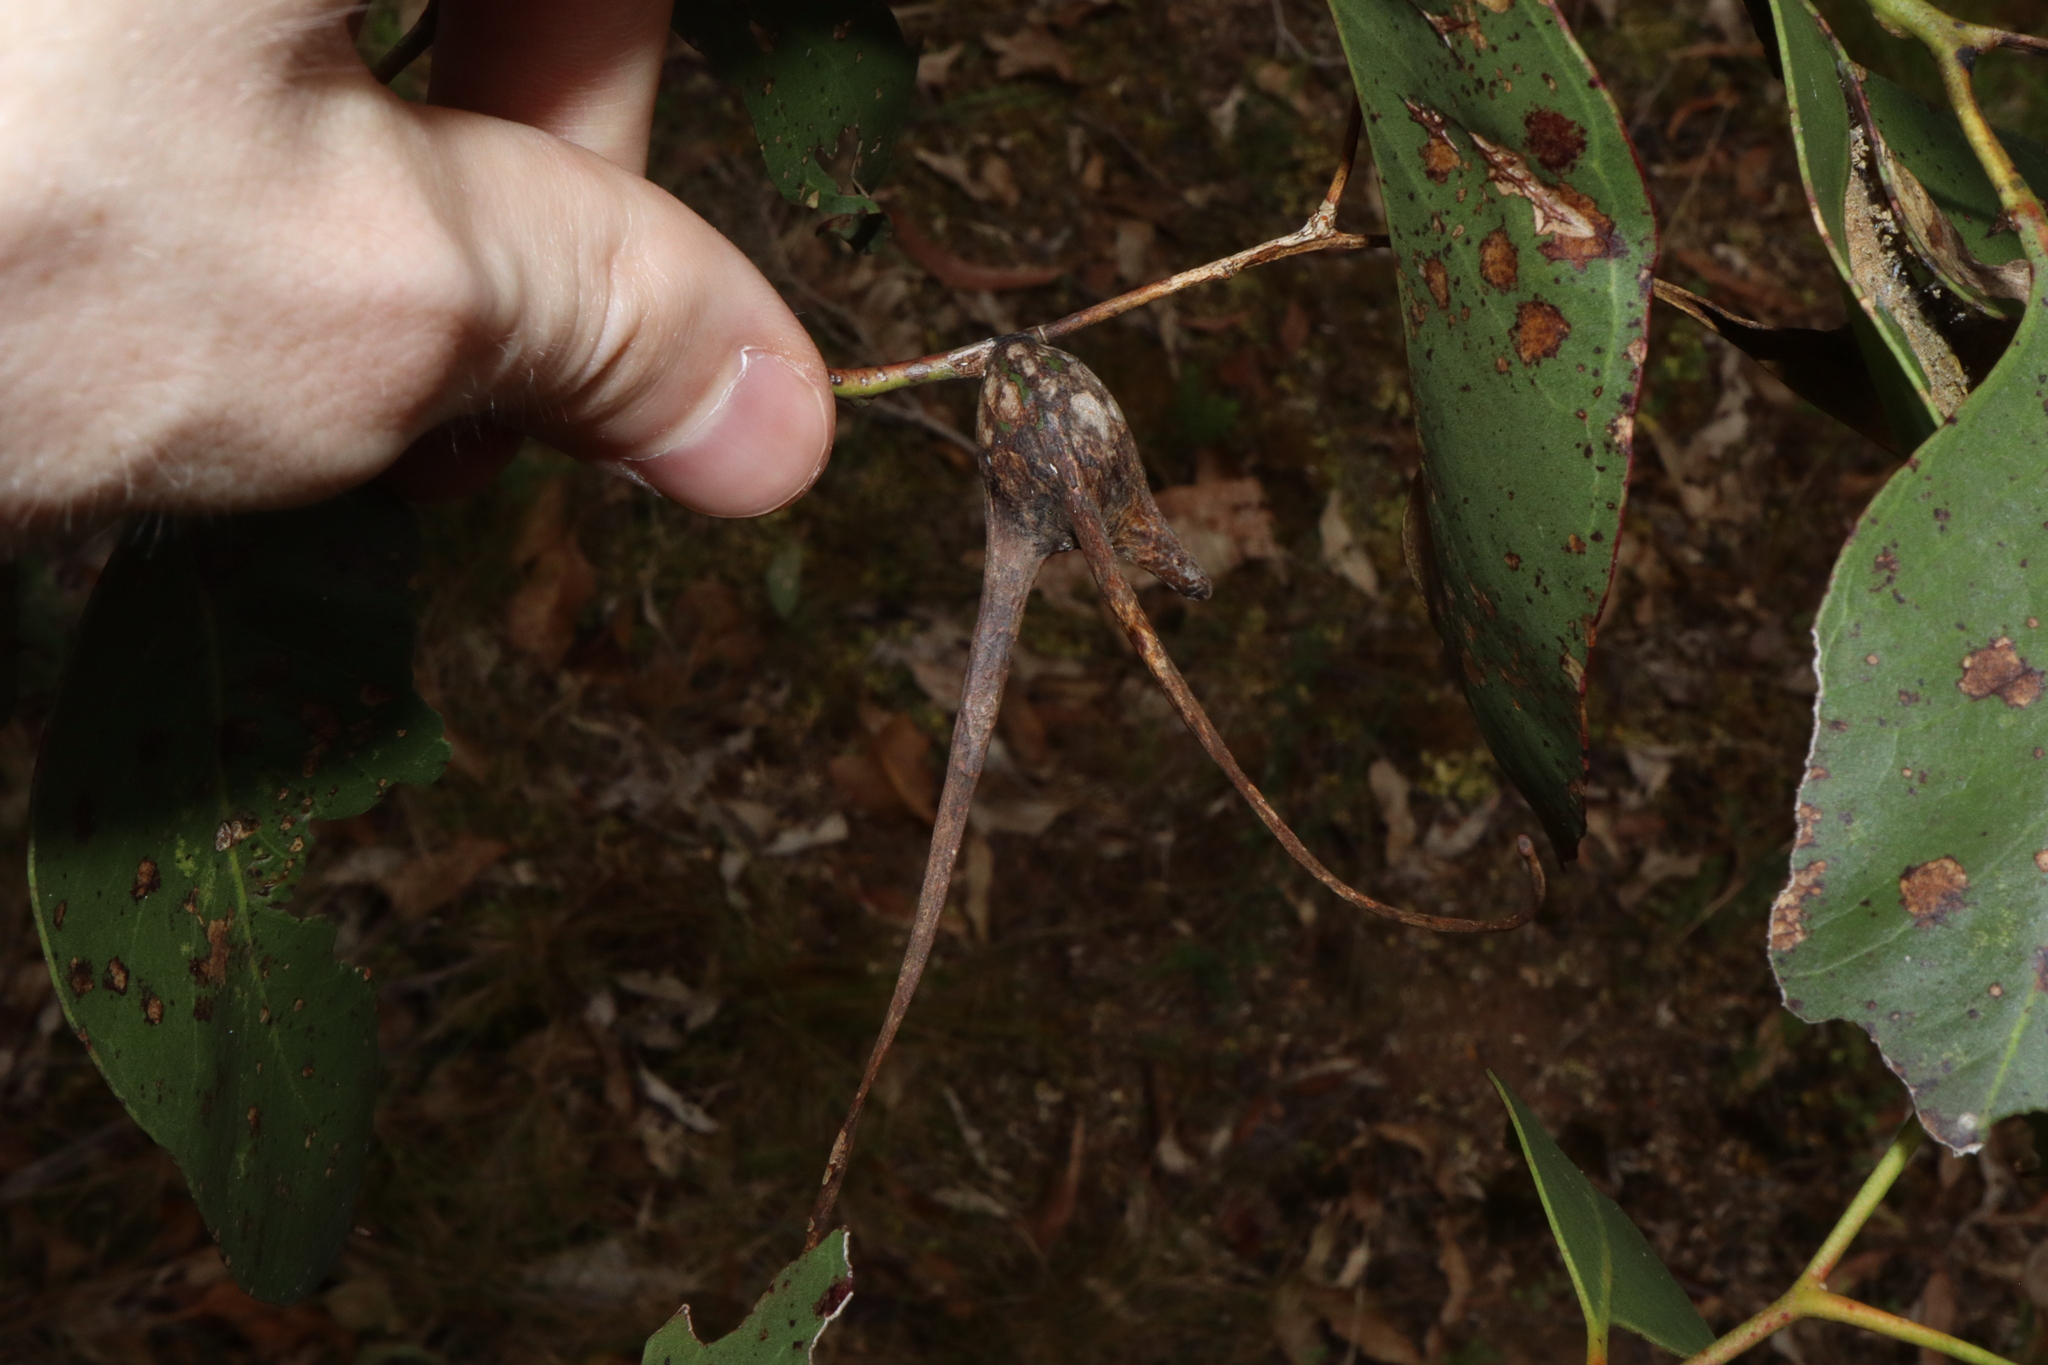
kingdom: Animalia
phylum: Arthropoda
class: Insecta
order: Hemiptera
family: Eriococcidae
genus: Apiomorpha
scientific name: Apiomorpha munita
